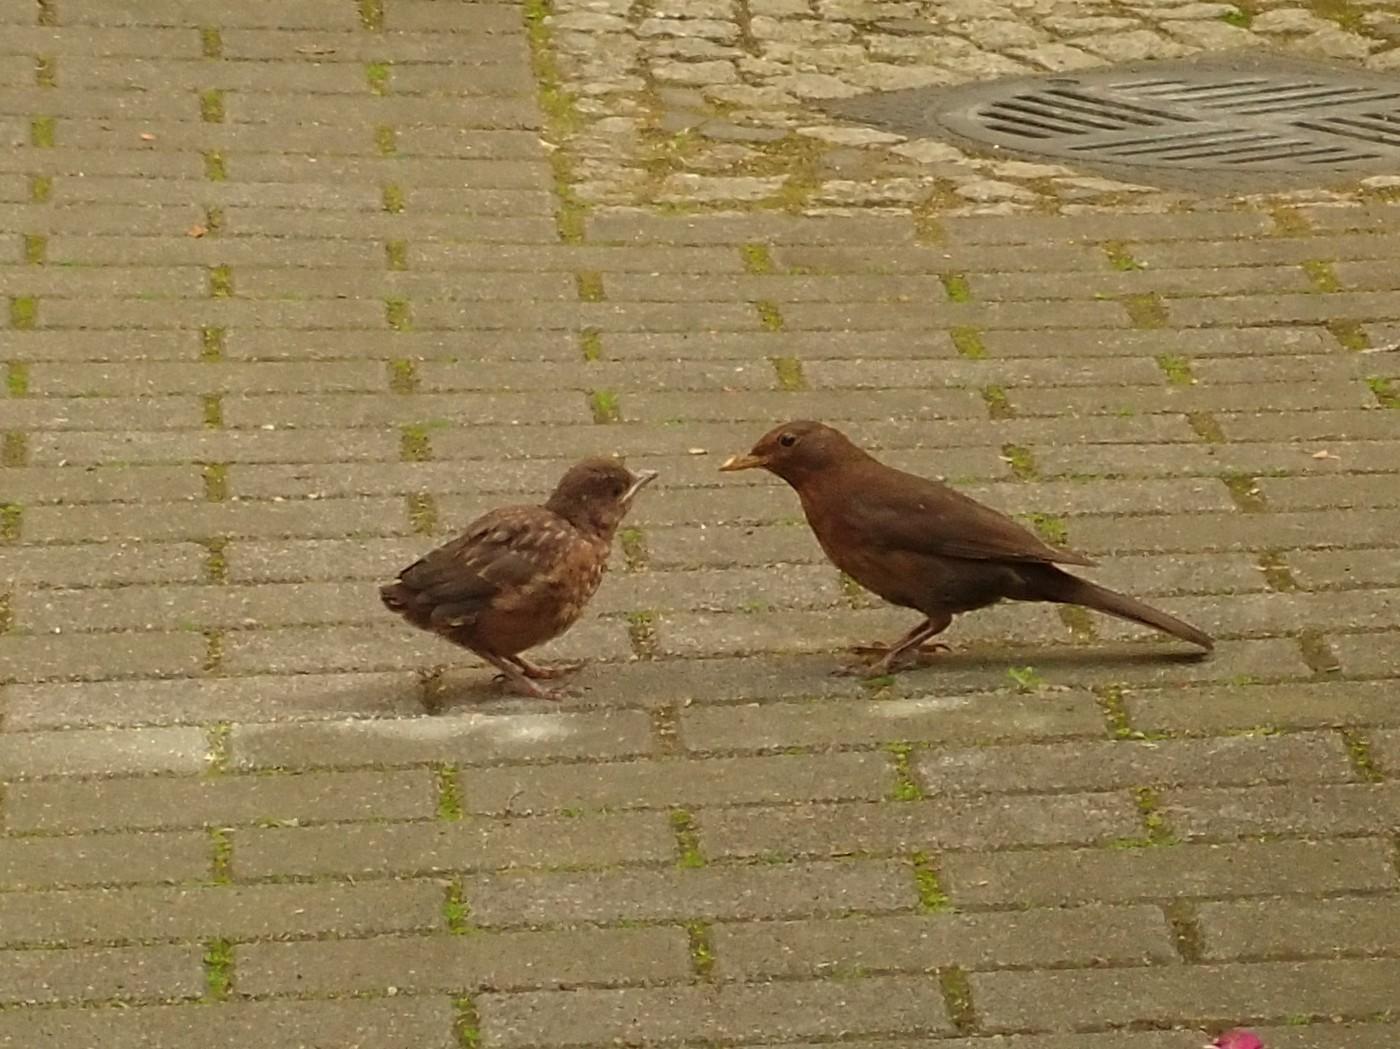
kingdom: Animalia
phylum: Chordata
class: Aves
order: Passeriformes
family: Turdidae
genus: Turdus
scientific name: Turdus merula
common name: Common blackbird
